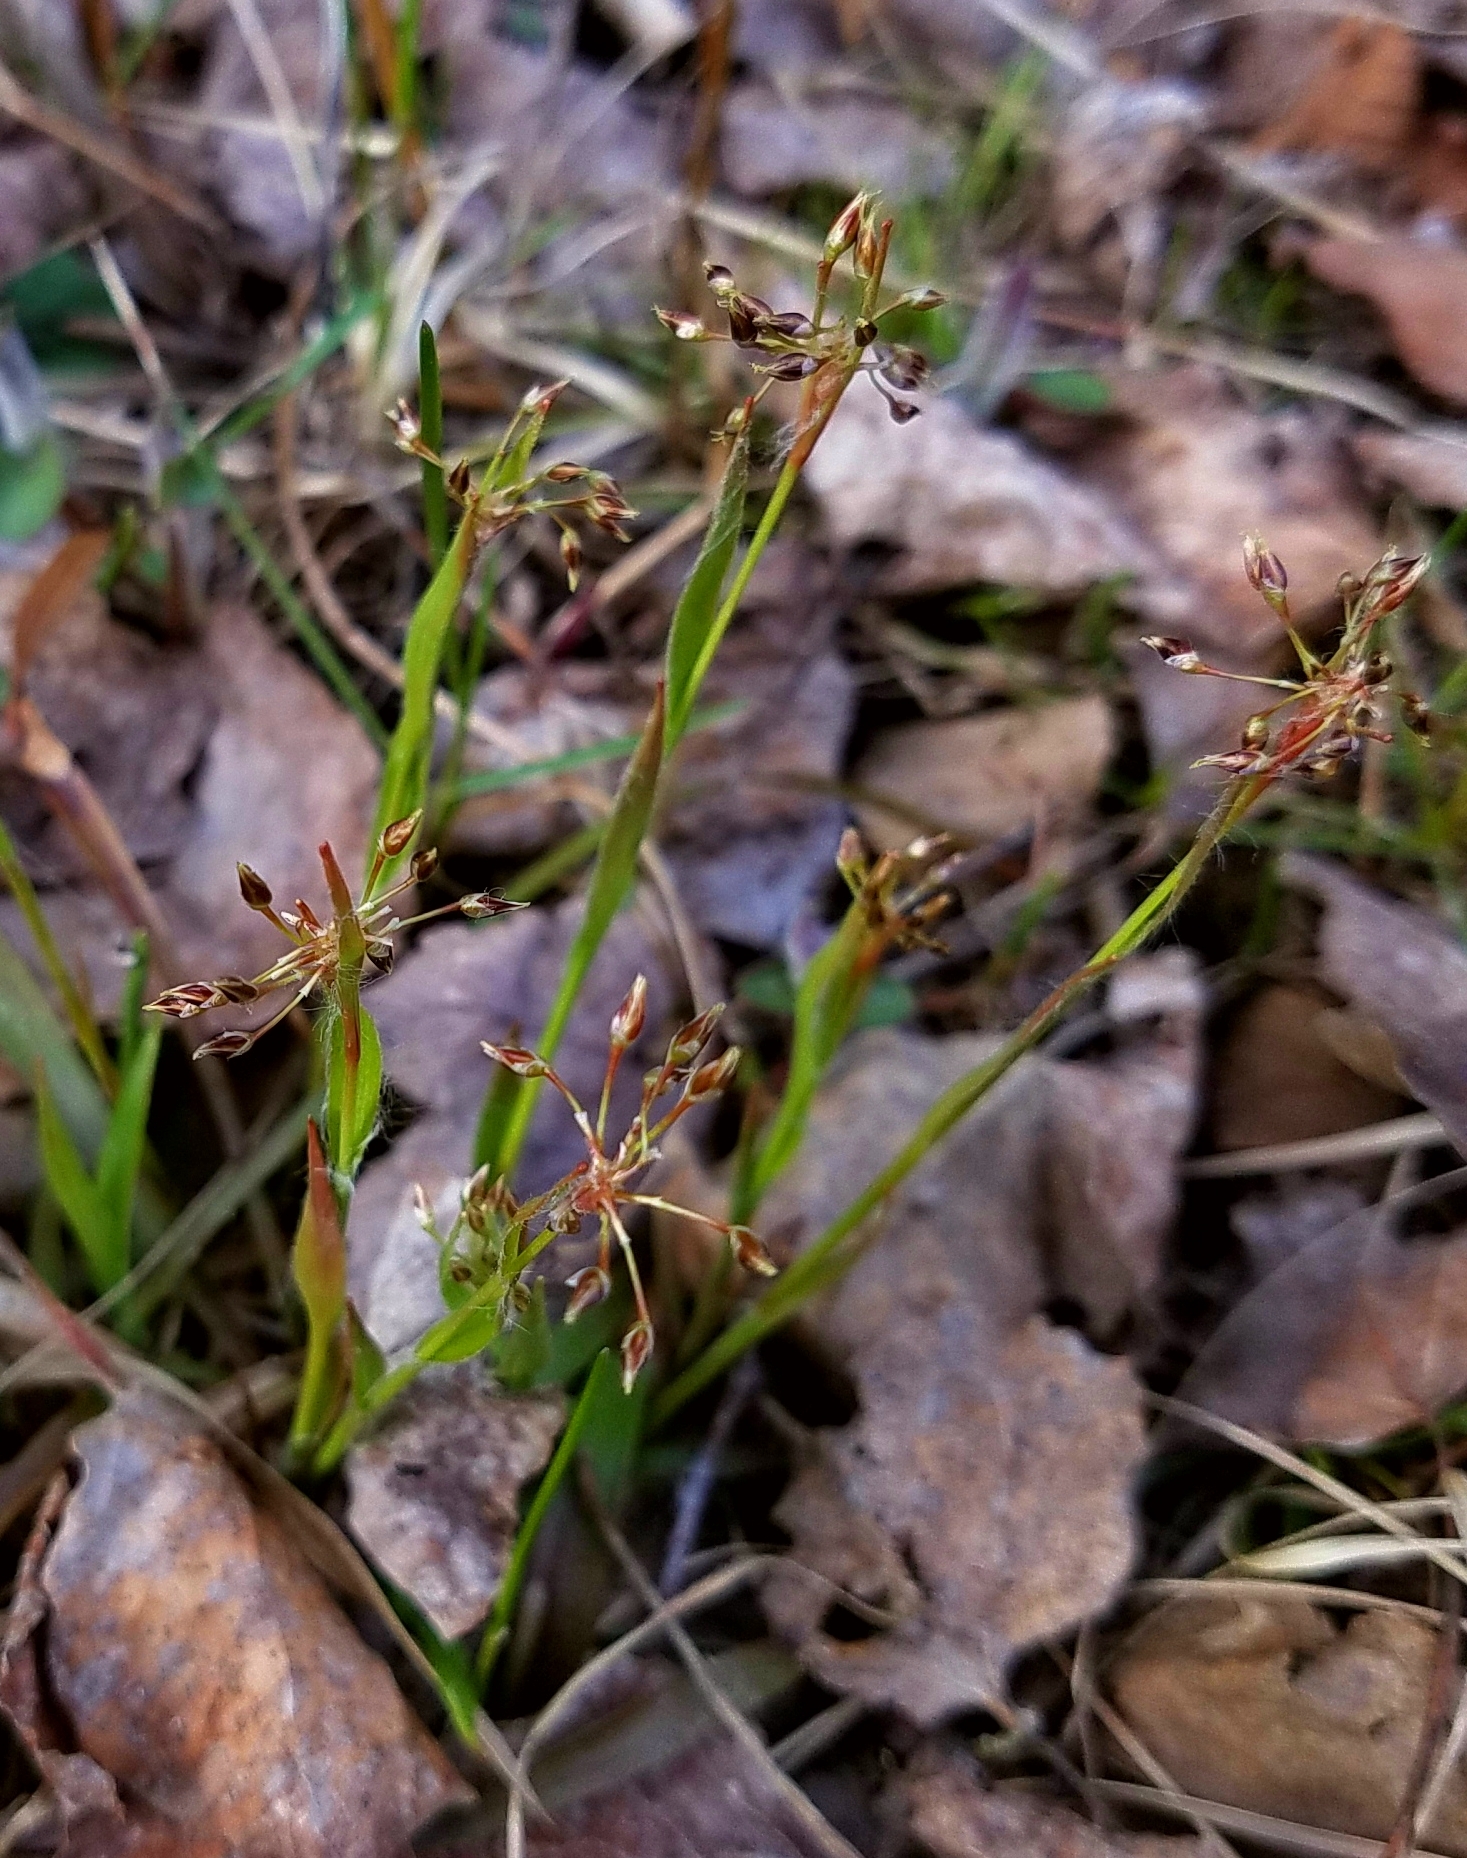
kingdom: Plantae
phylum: Tracheophyta
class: Liliopsida
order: Poales
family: Juncaceae
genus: Luzula
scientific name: Luzula acuminata
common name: Hairy woodrush
